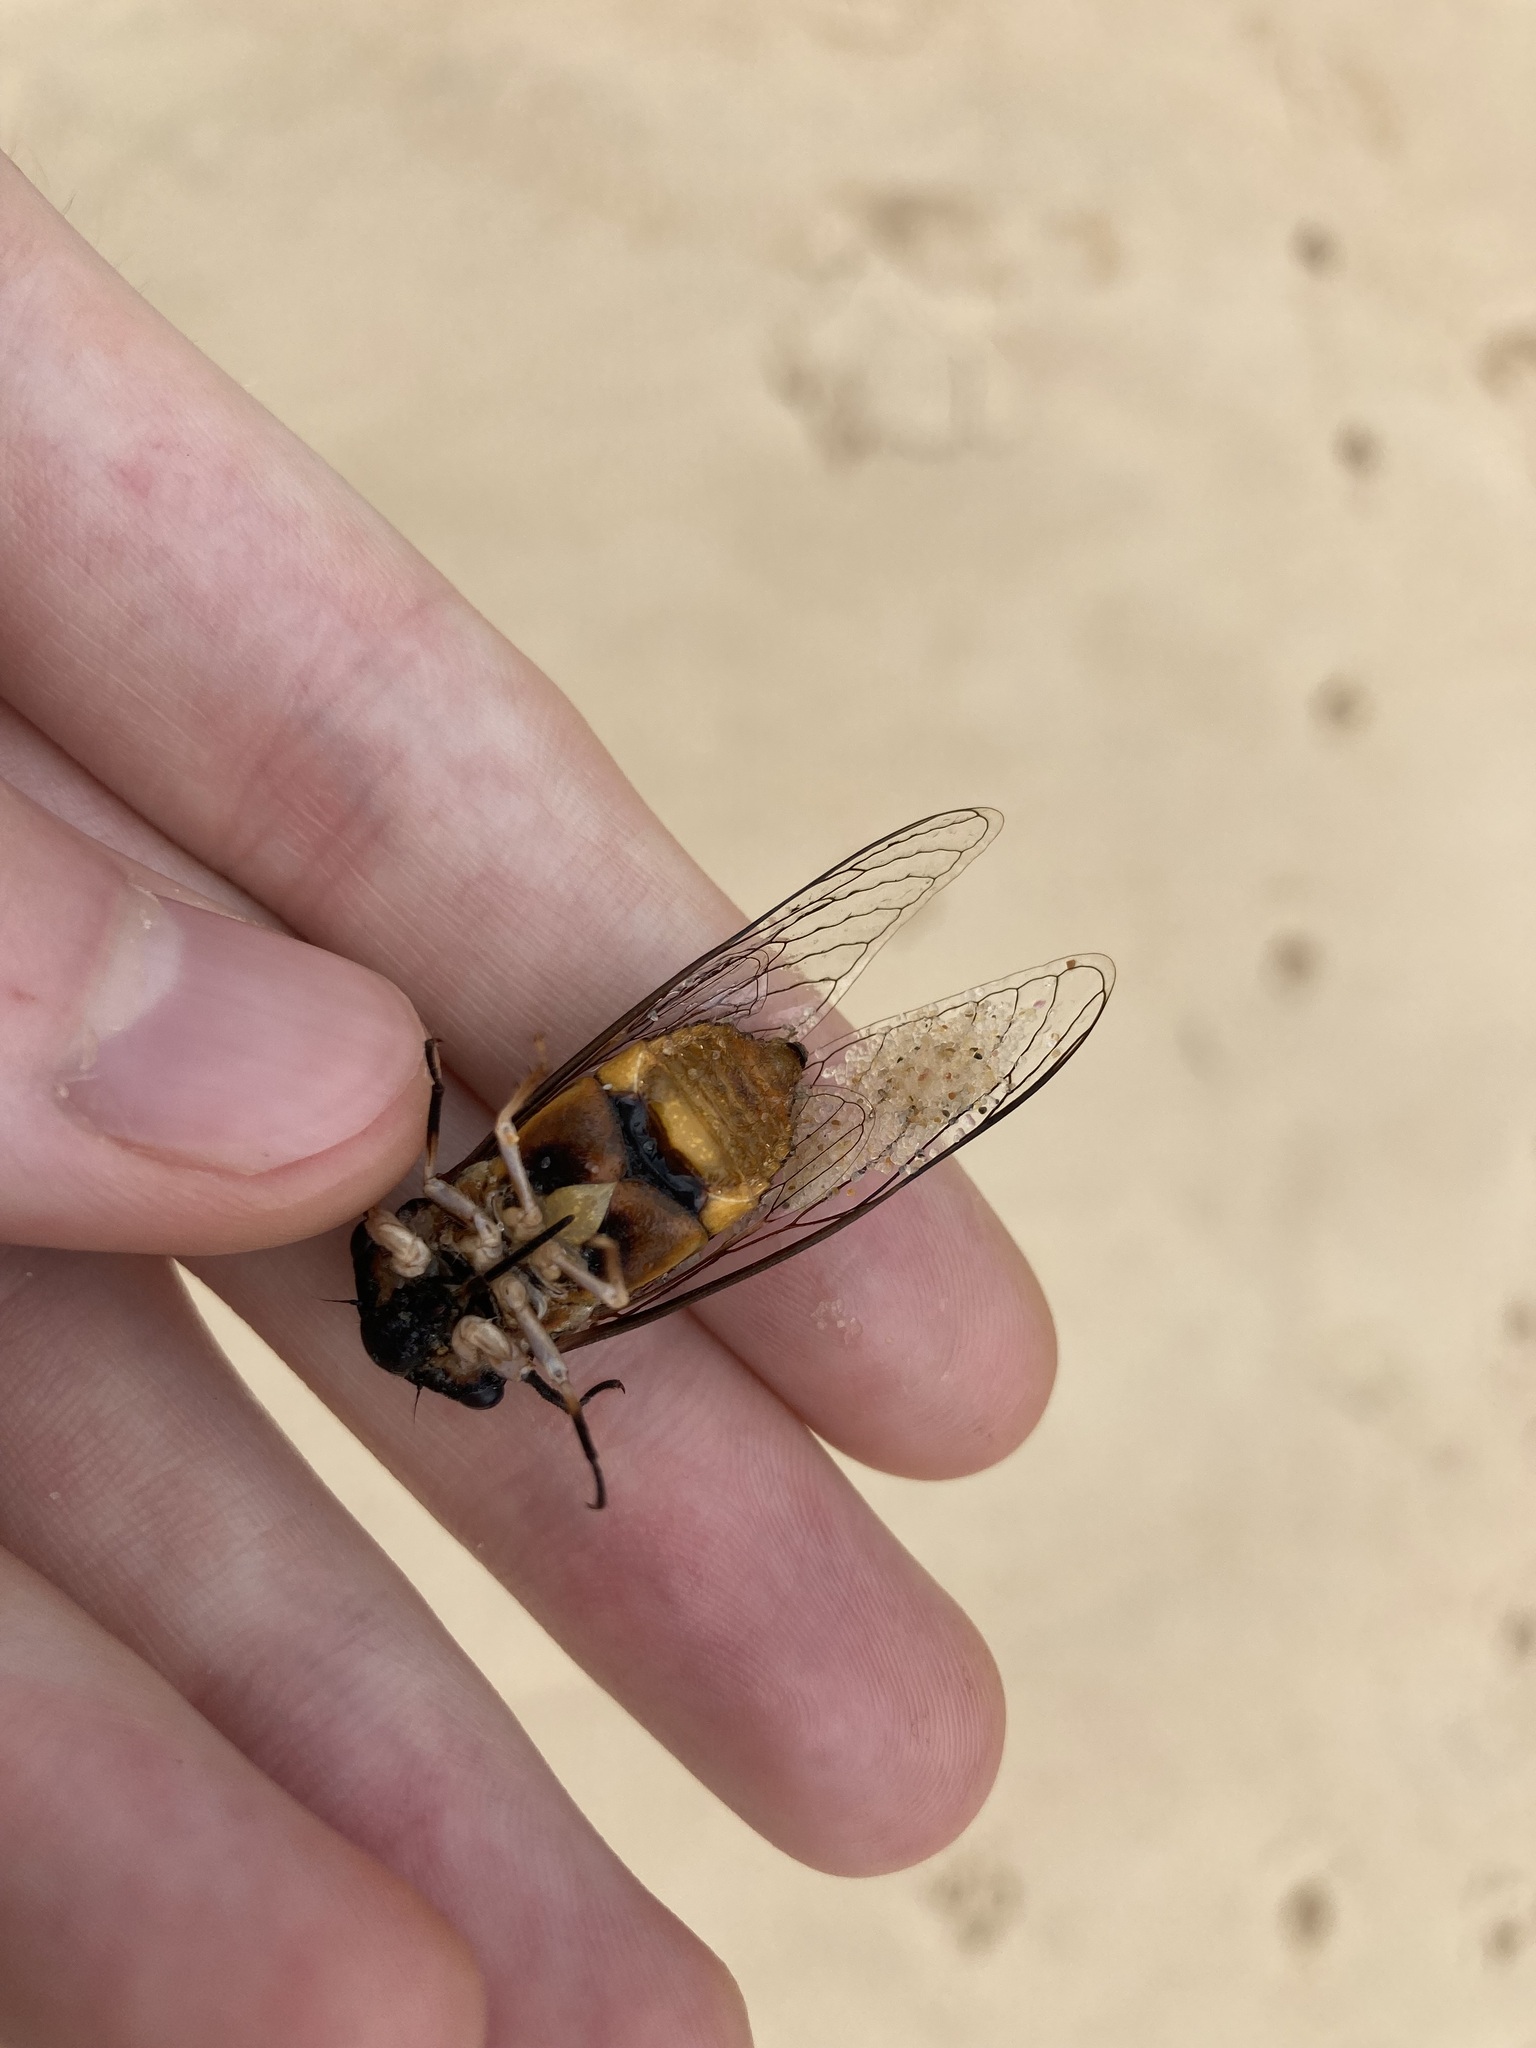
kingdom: Animalia
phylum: Arthropoda
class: Insecta
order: Hemiptera
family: Cicadidae
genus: Psaltoda
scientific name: Psaltoda harrisii
